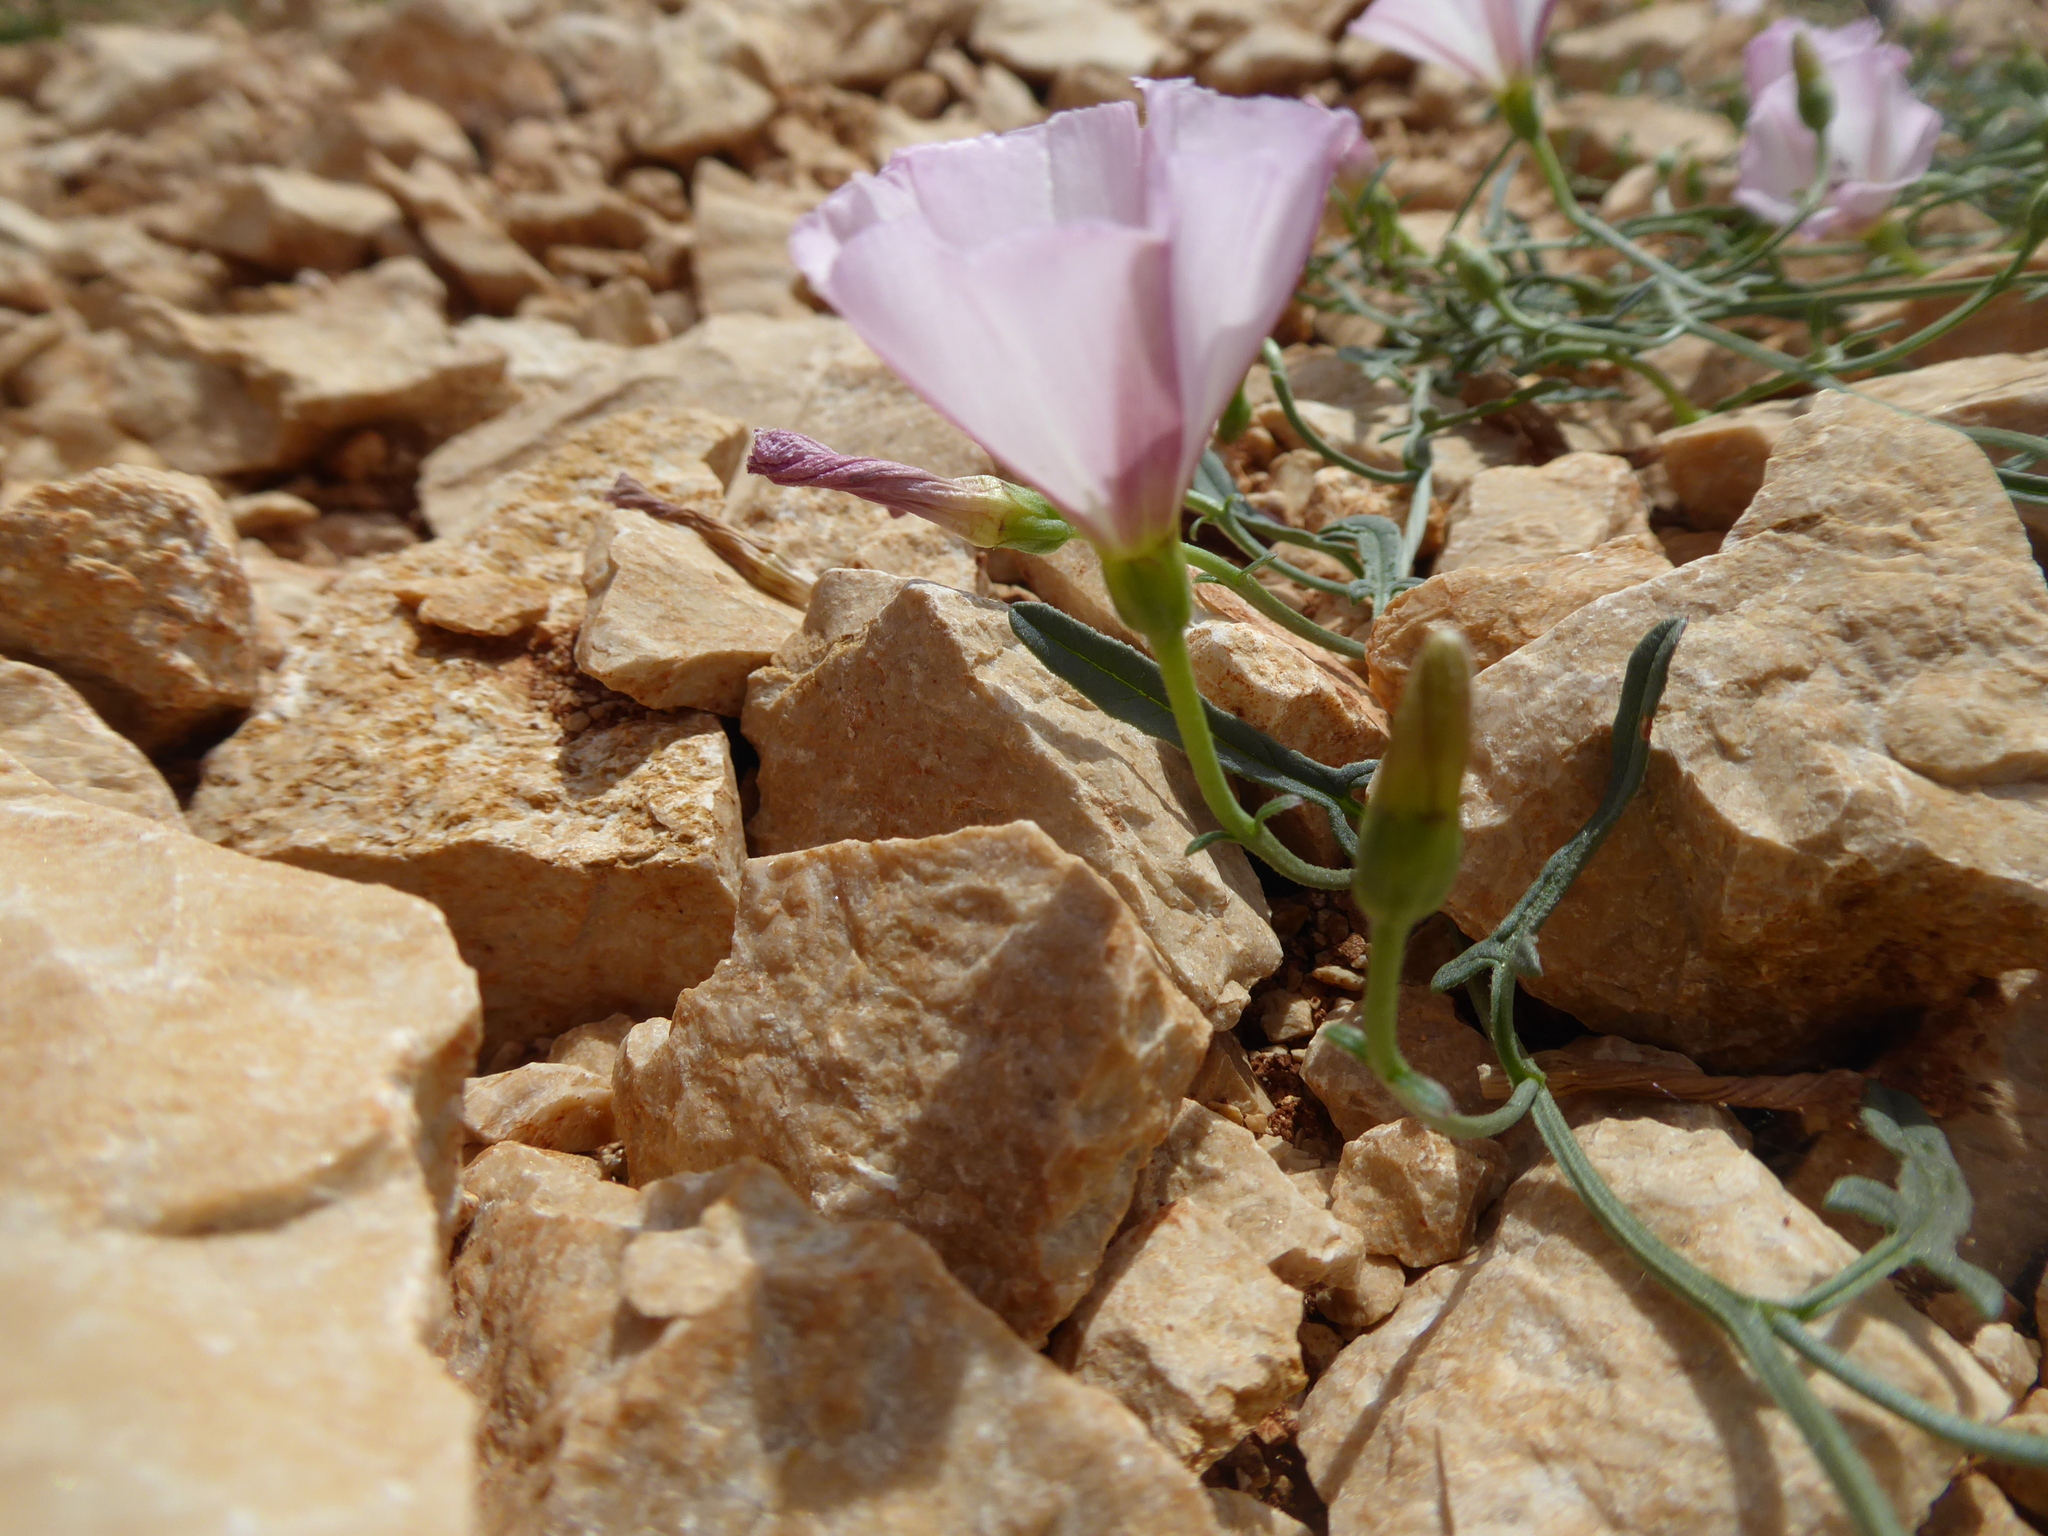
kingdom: Plantae
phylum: Tracheophyta
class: Magnoliopsida
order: Solanales
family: Convolvulaceae
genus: Convolvulus
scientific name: Convolvulus arvensis
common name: Field bindweed
